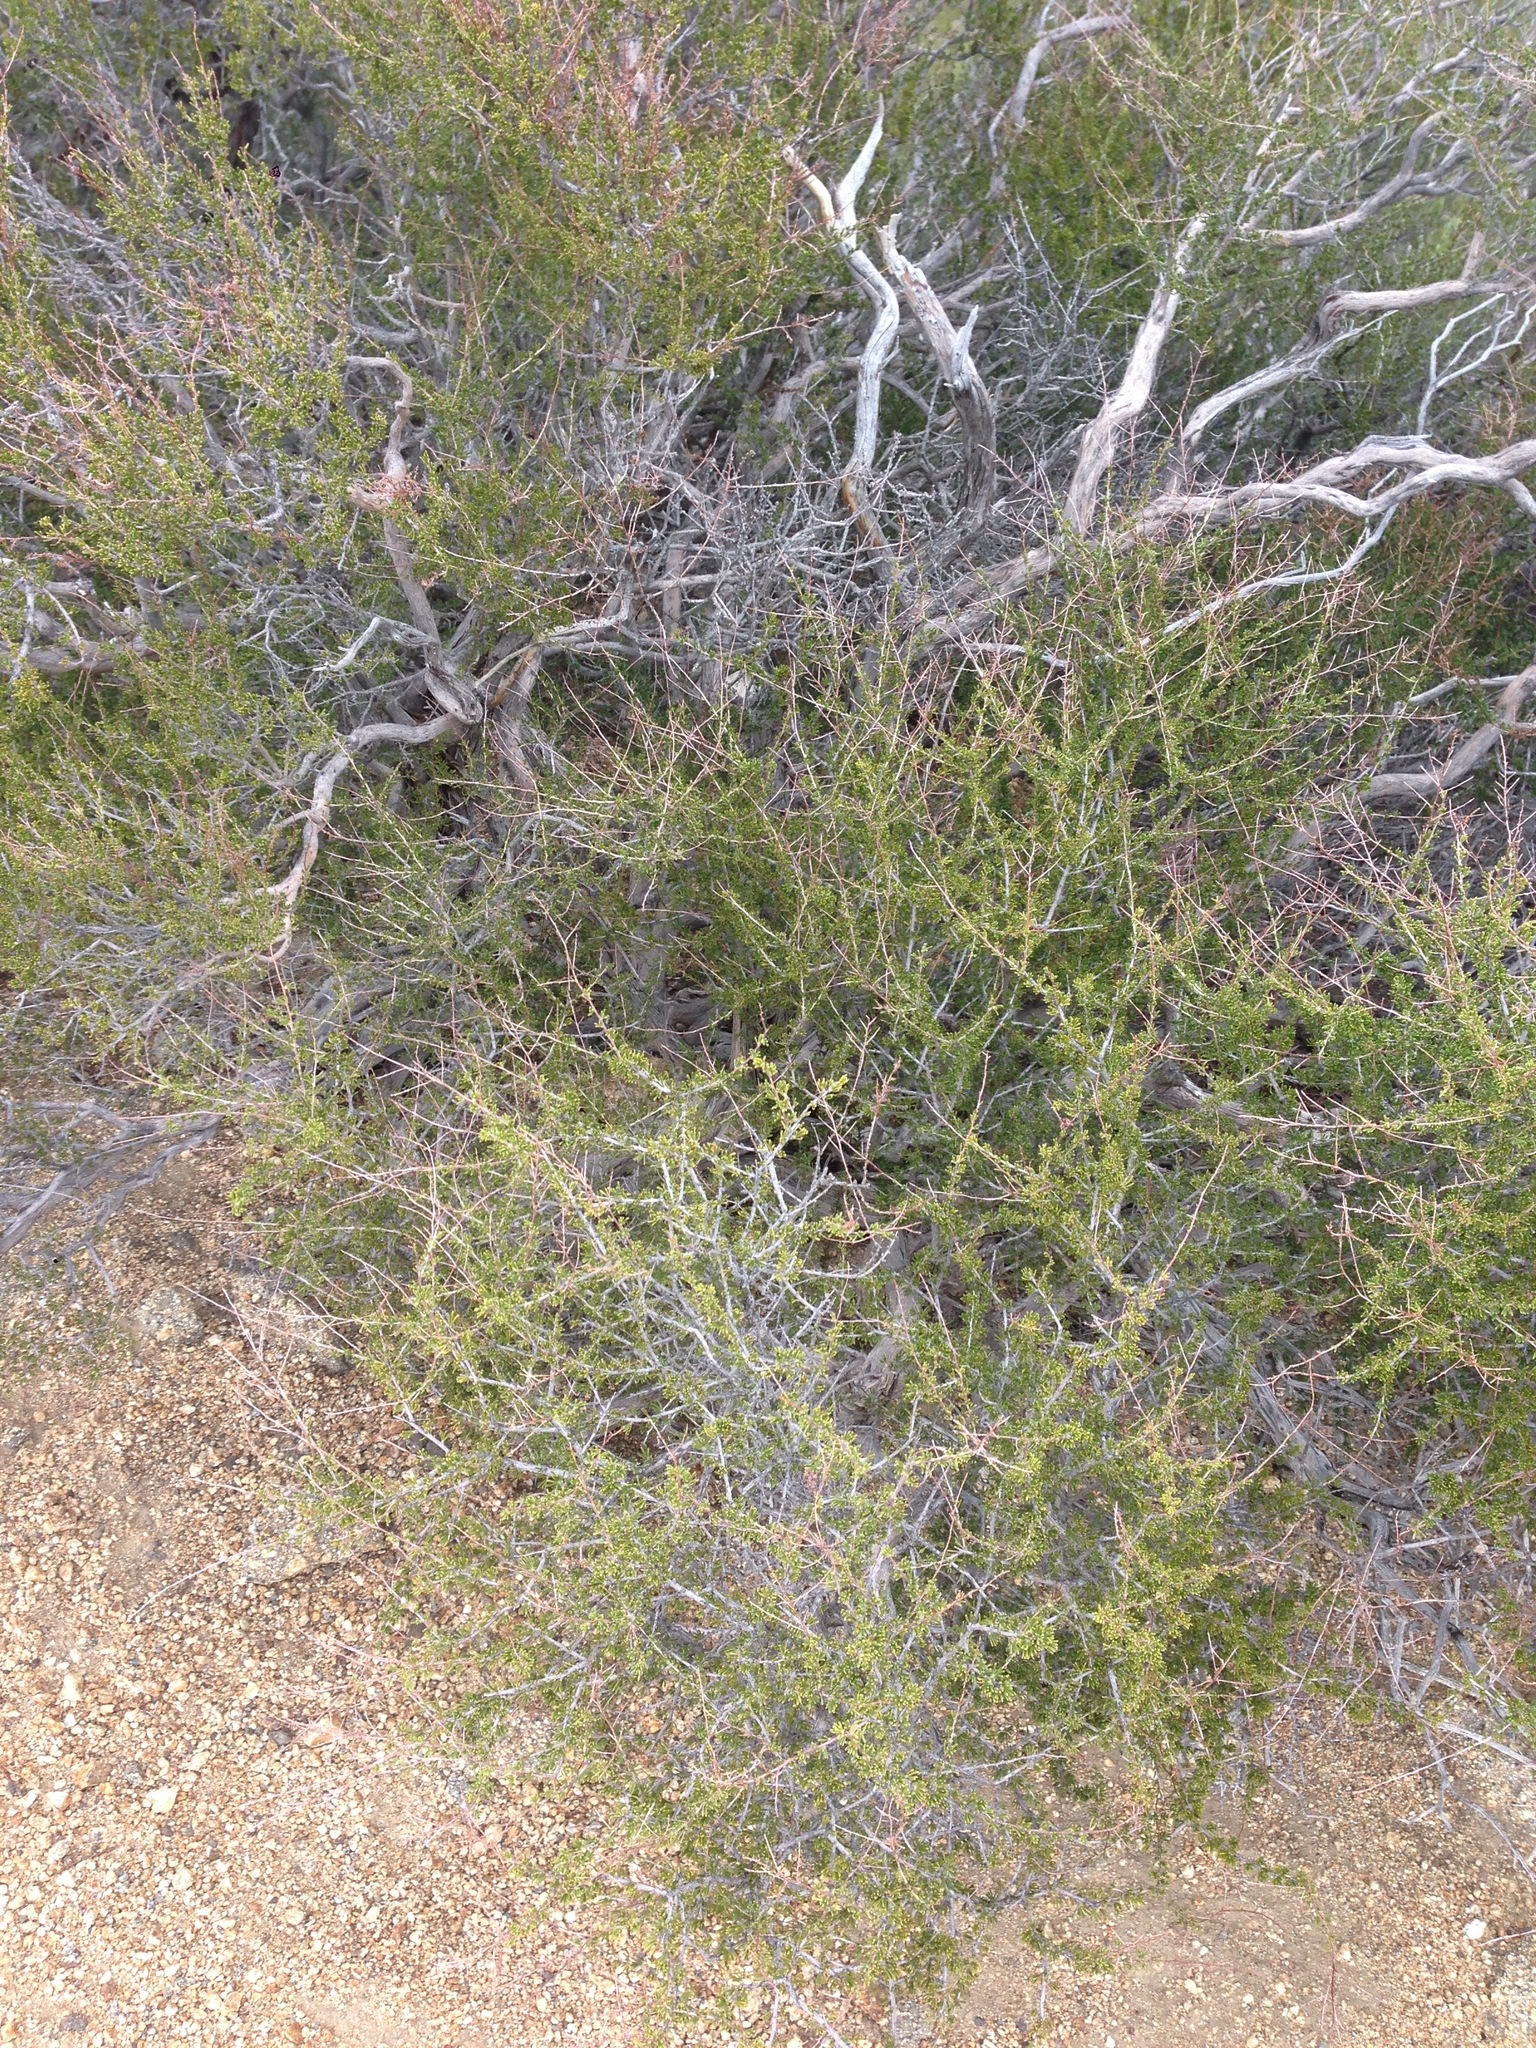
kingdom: Plantae
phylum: Tracheophyta
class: Magnoliopsida
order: Rosales
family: Rosaceae
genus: Adenostoma
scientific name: Adenostoma fasciculatum
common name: Chamise
